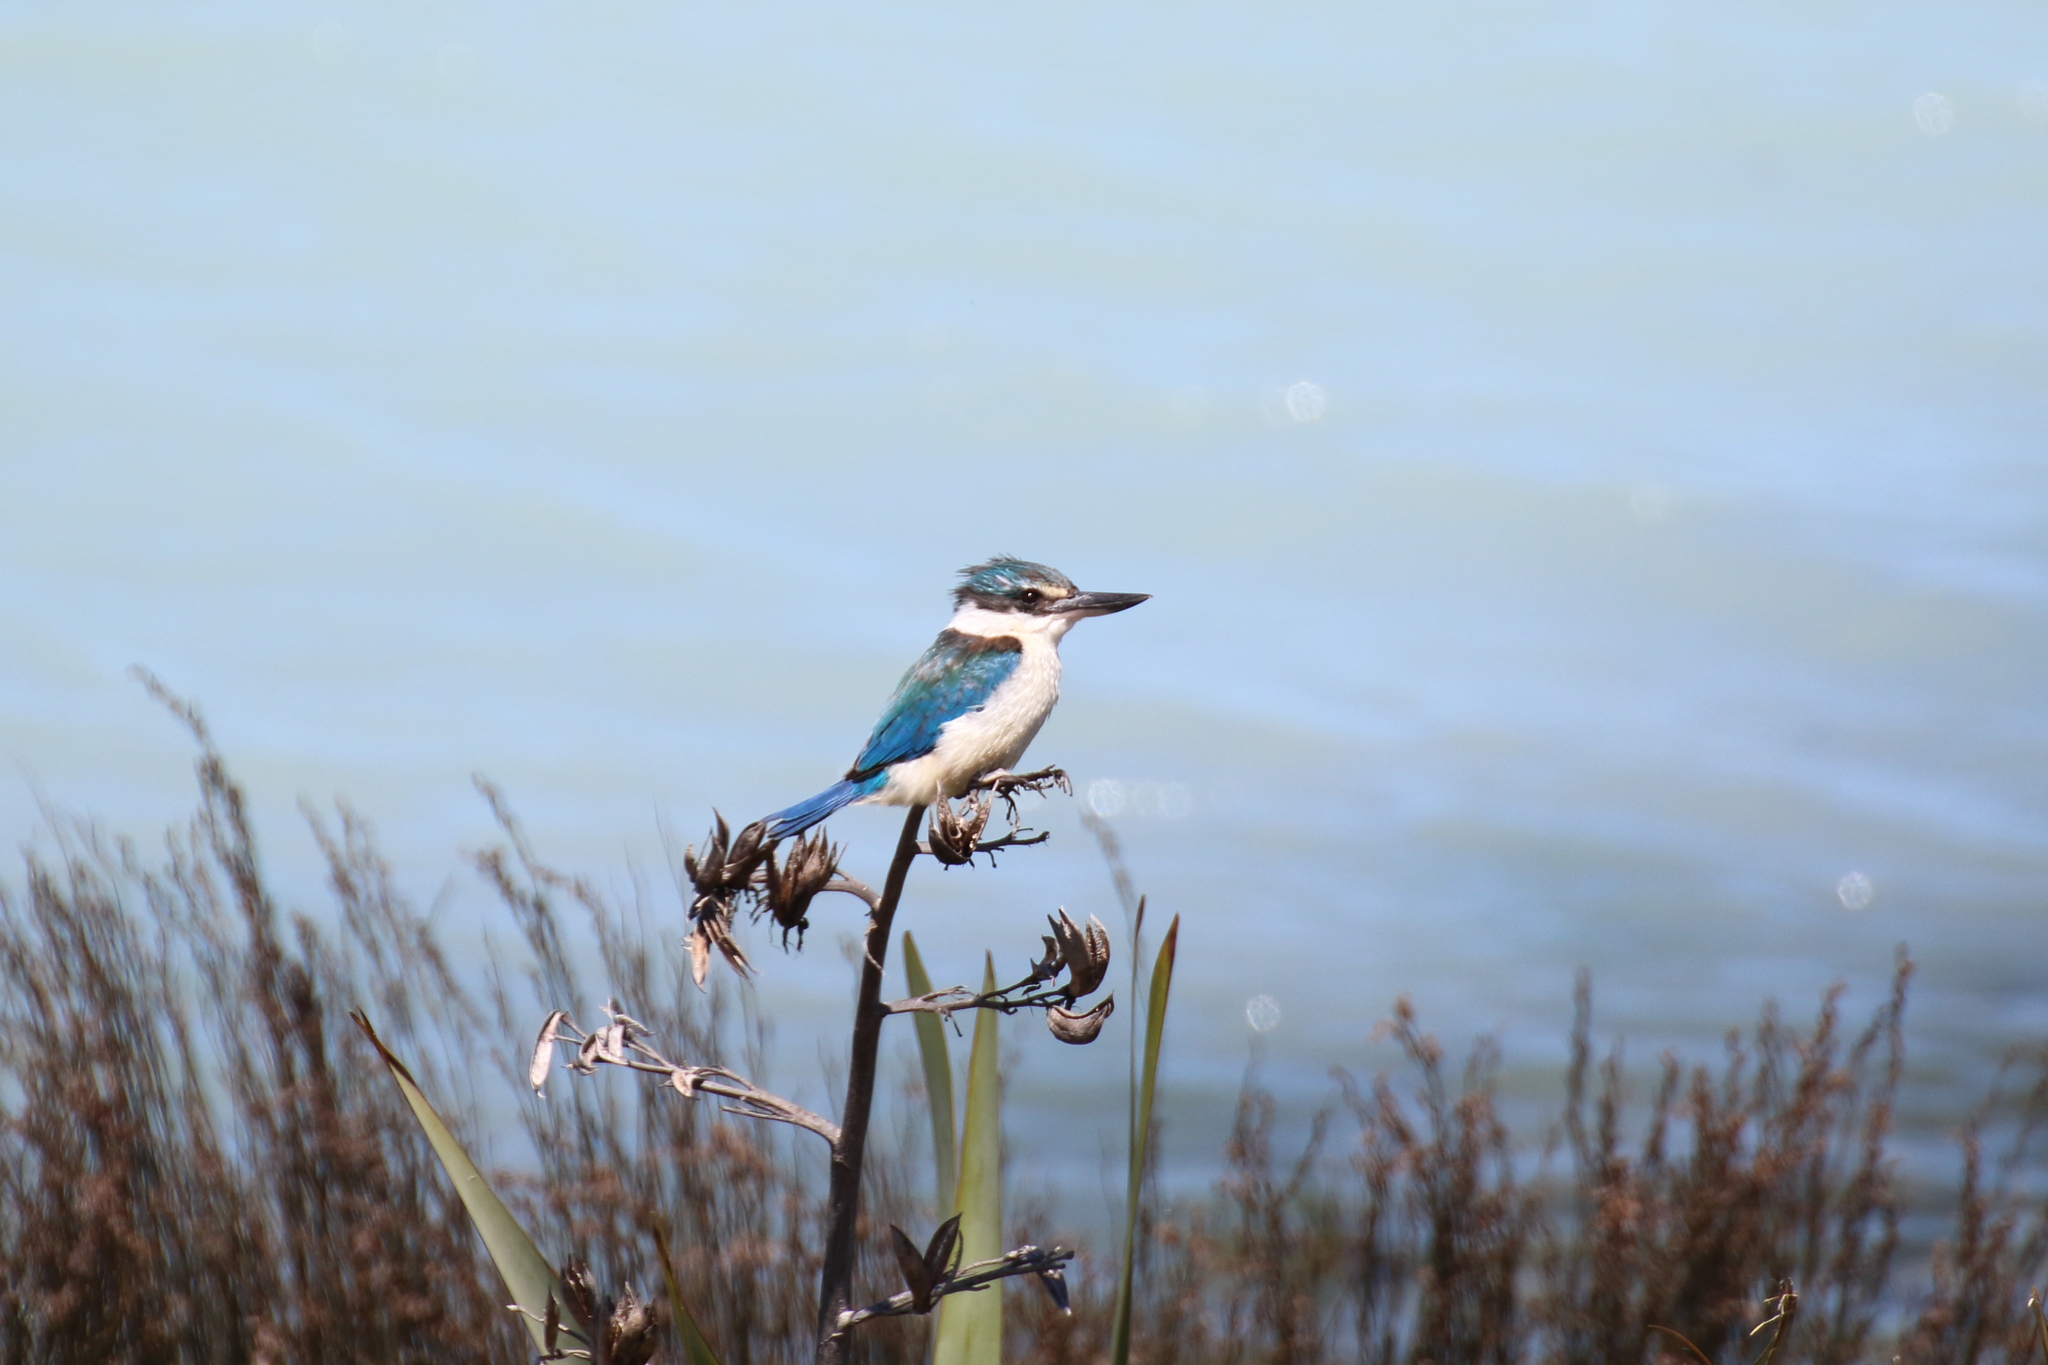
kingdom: Animalia
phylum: Chordata
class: Aves
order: Coraciiformes
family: Alcedinidae
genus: Todiramphus
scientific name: Todiramphus sanctus
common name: Sacred kingfisher
